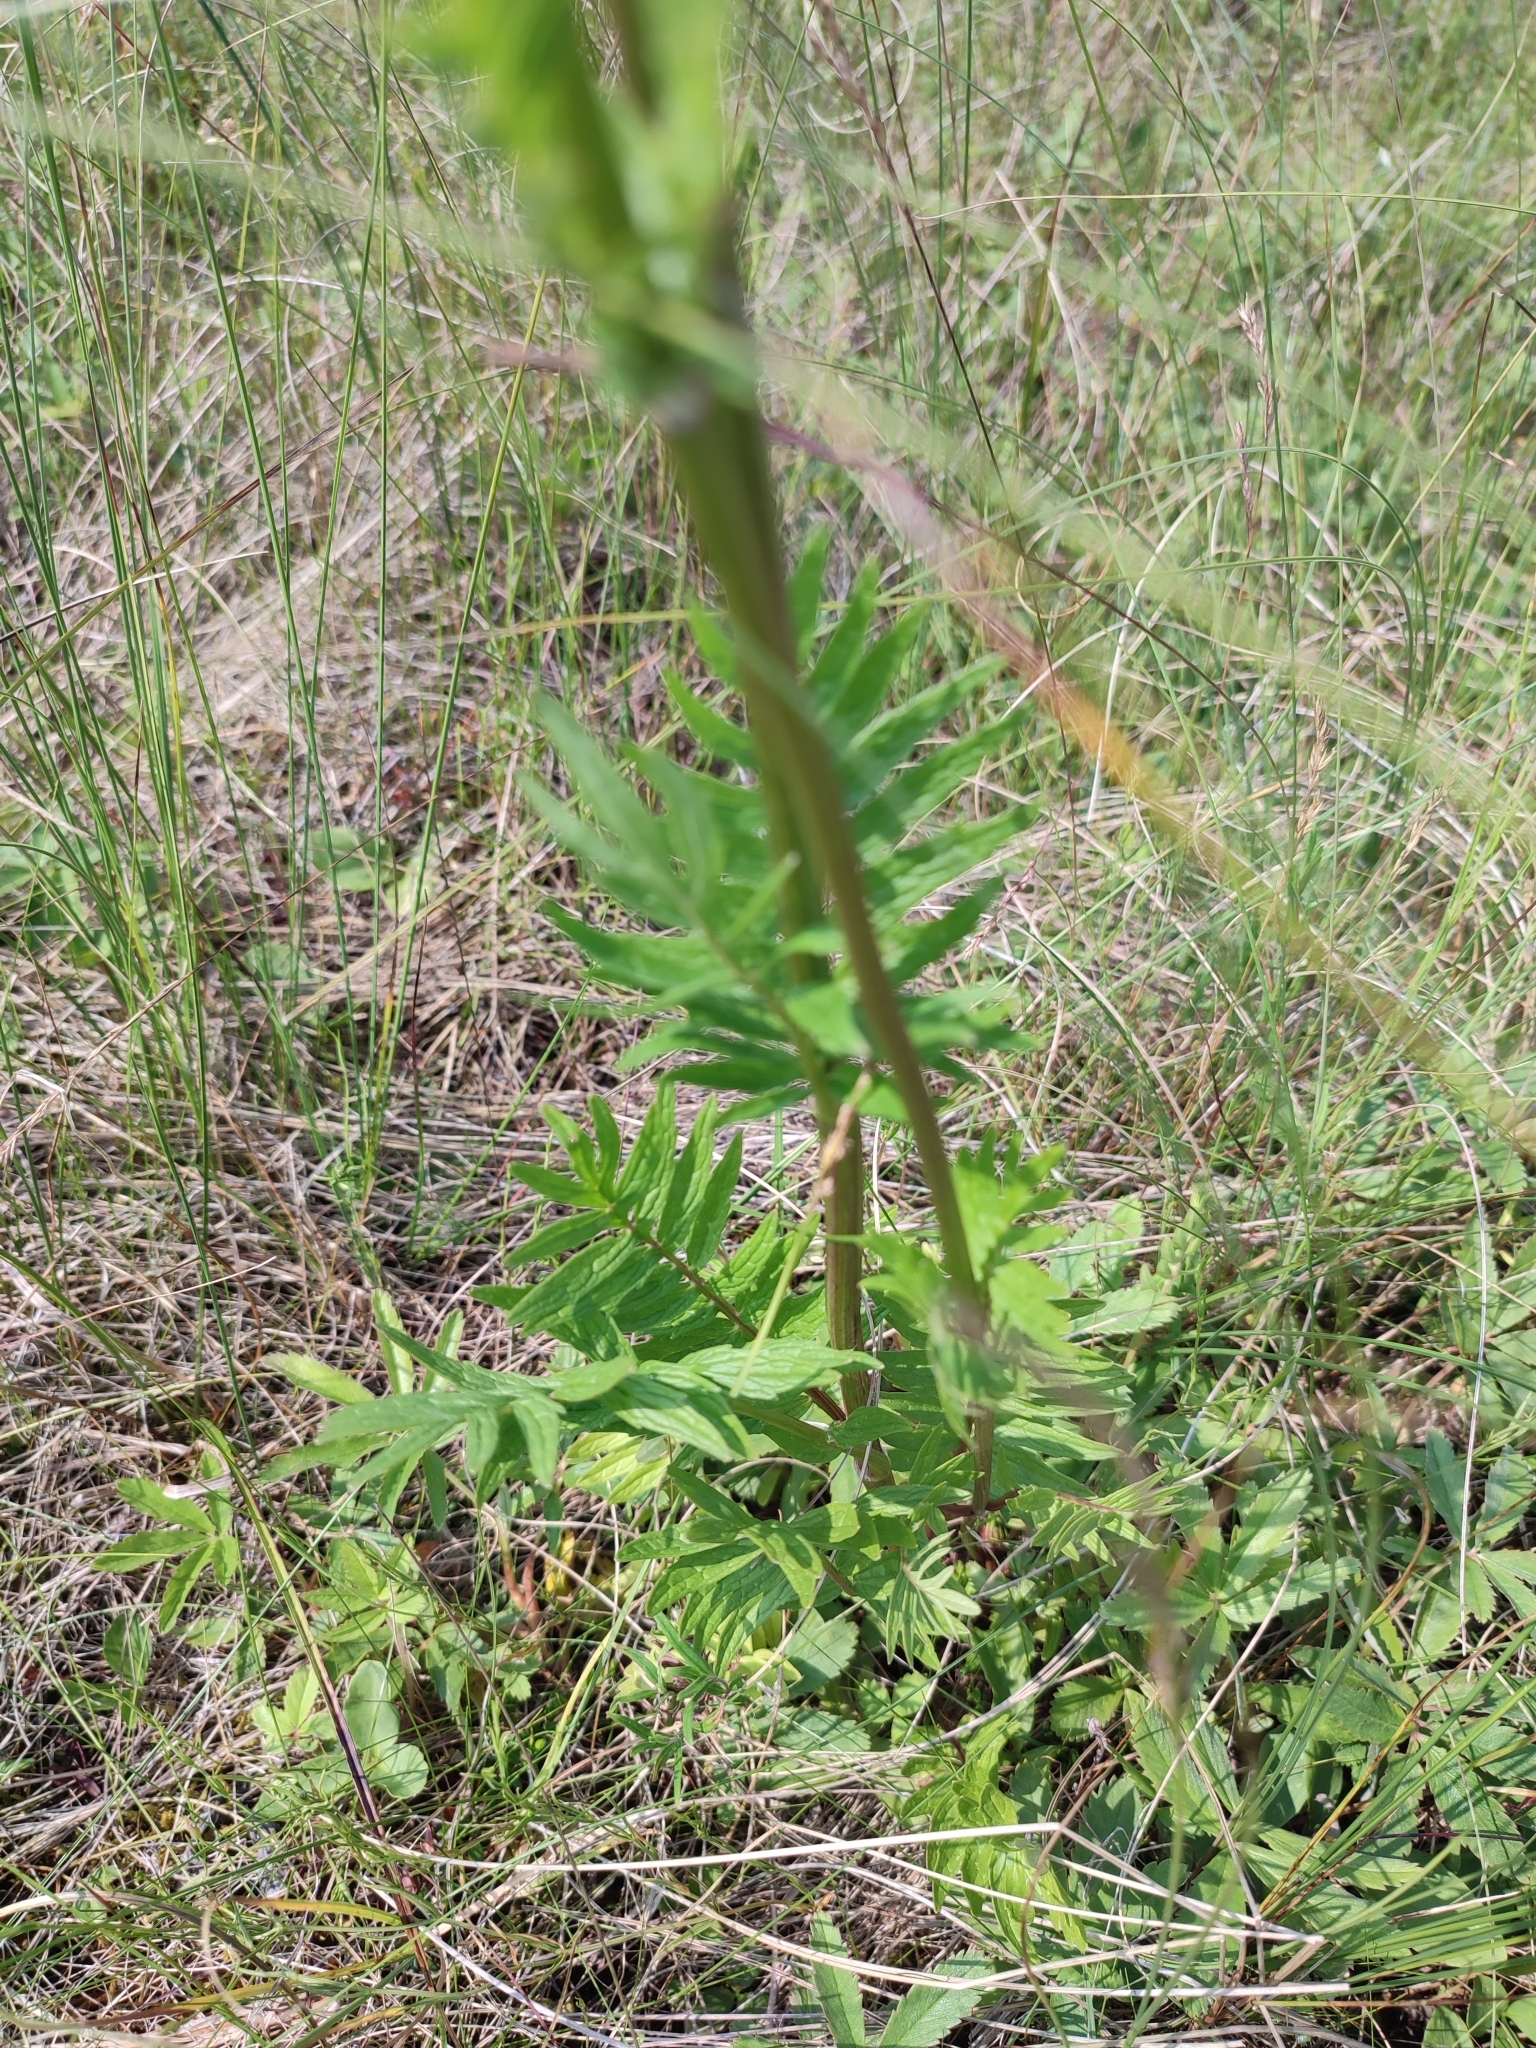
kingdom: Plantae
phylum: Tracheophyta
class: Magnoliopsida
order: Dipsacales
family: Caprifoliaceae
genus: Valeriana
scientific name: Valeriana officinalis
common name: Common valerian
